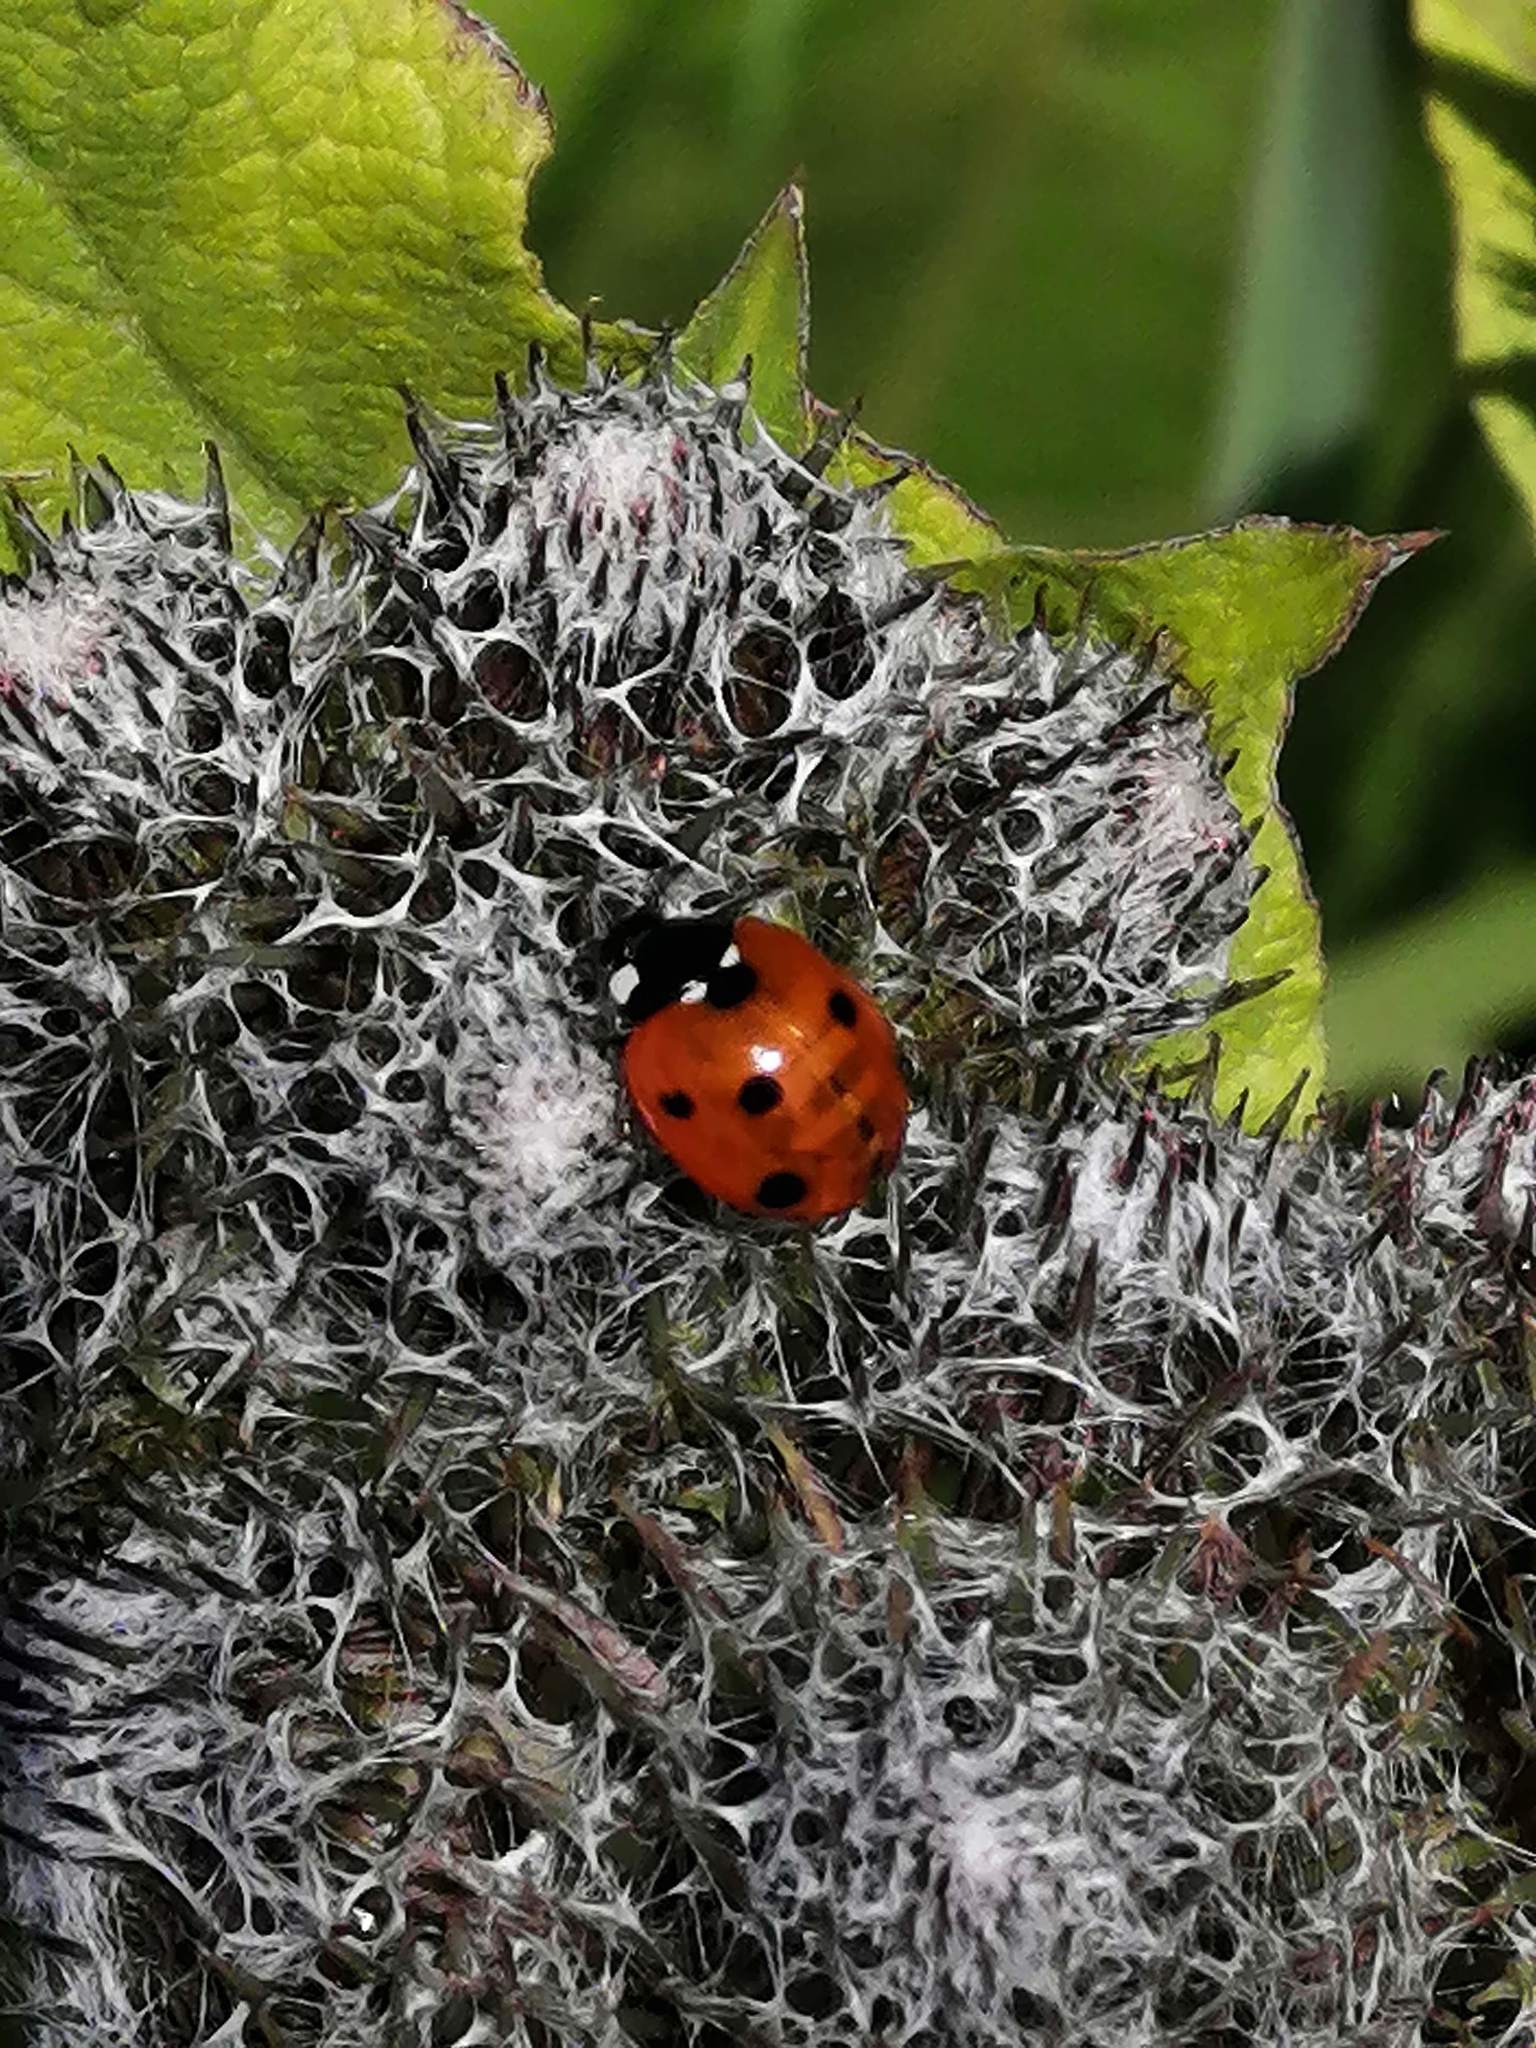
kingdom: Animalia
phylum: Arthropoda
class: Insecta
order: Coleoptera
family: Coccinellidae
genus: Coccinella
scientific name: Coccinella septempunctata
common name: Sevenspotted lady beetle
